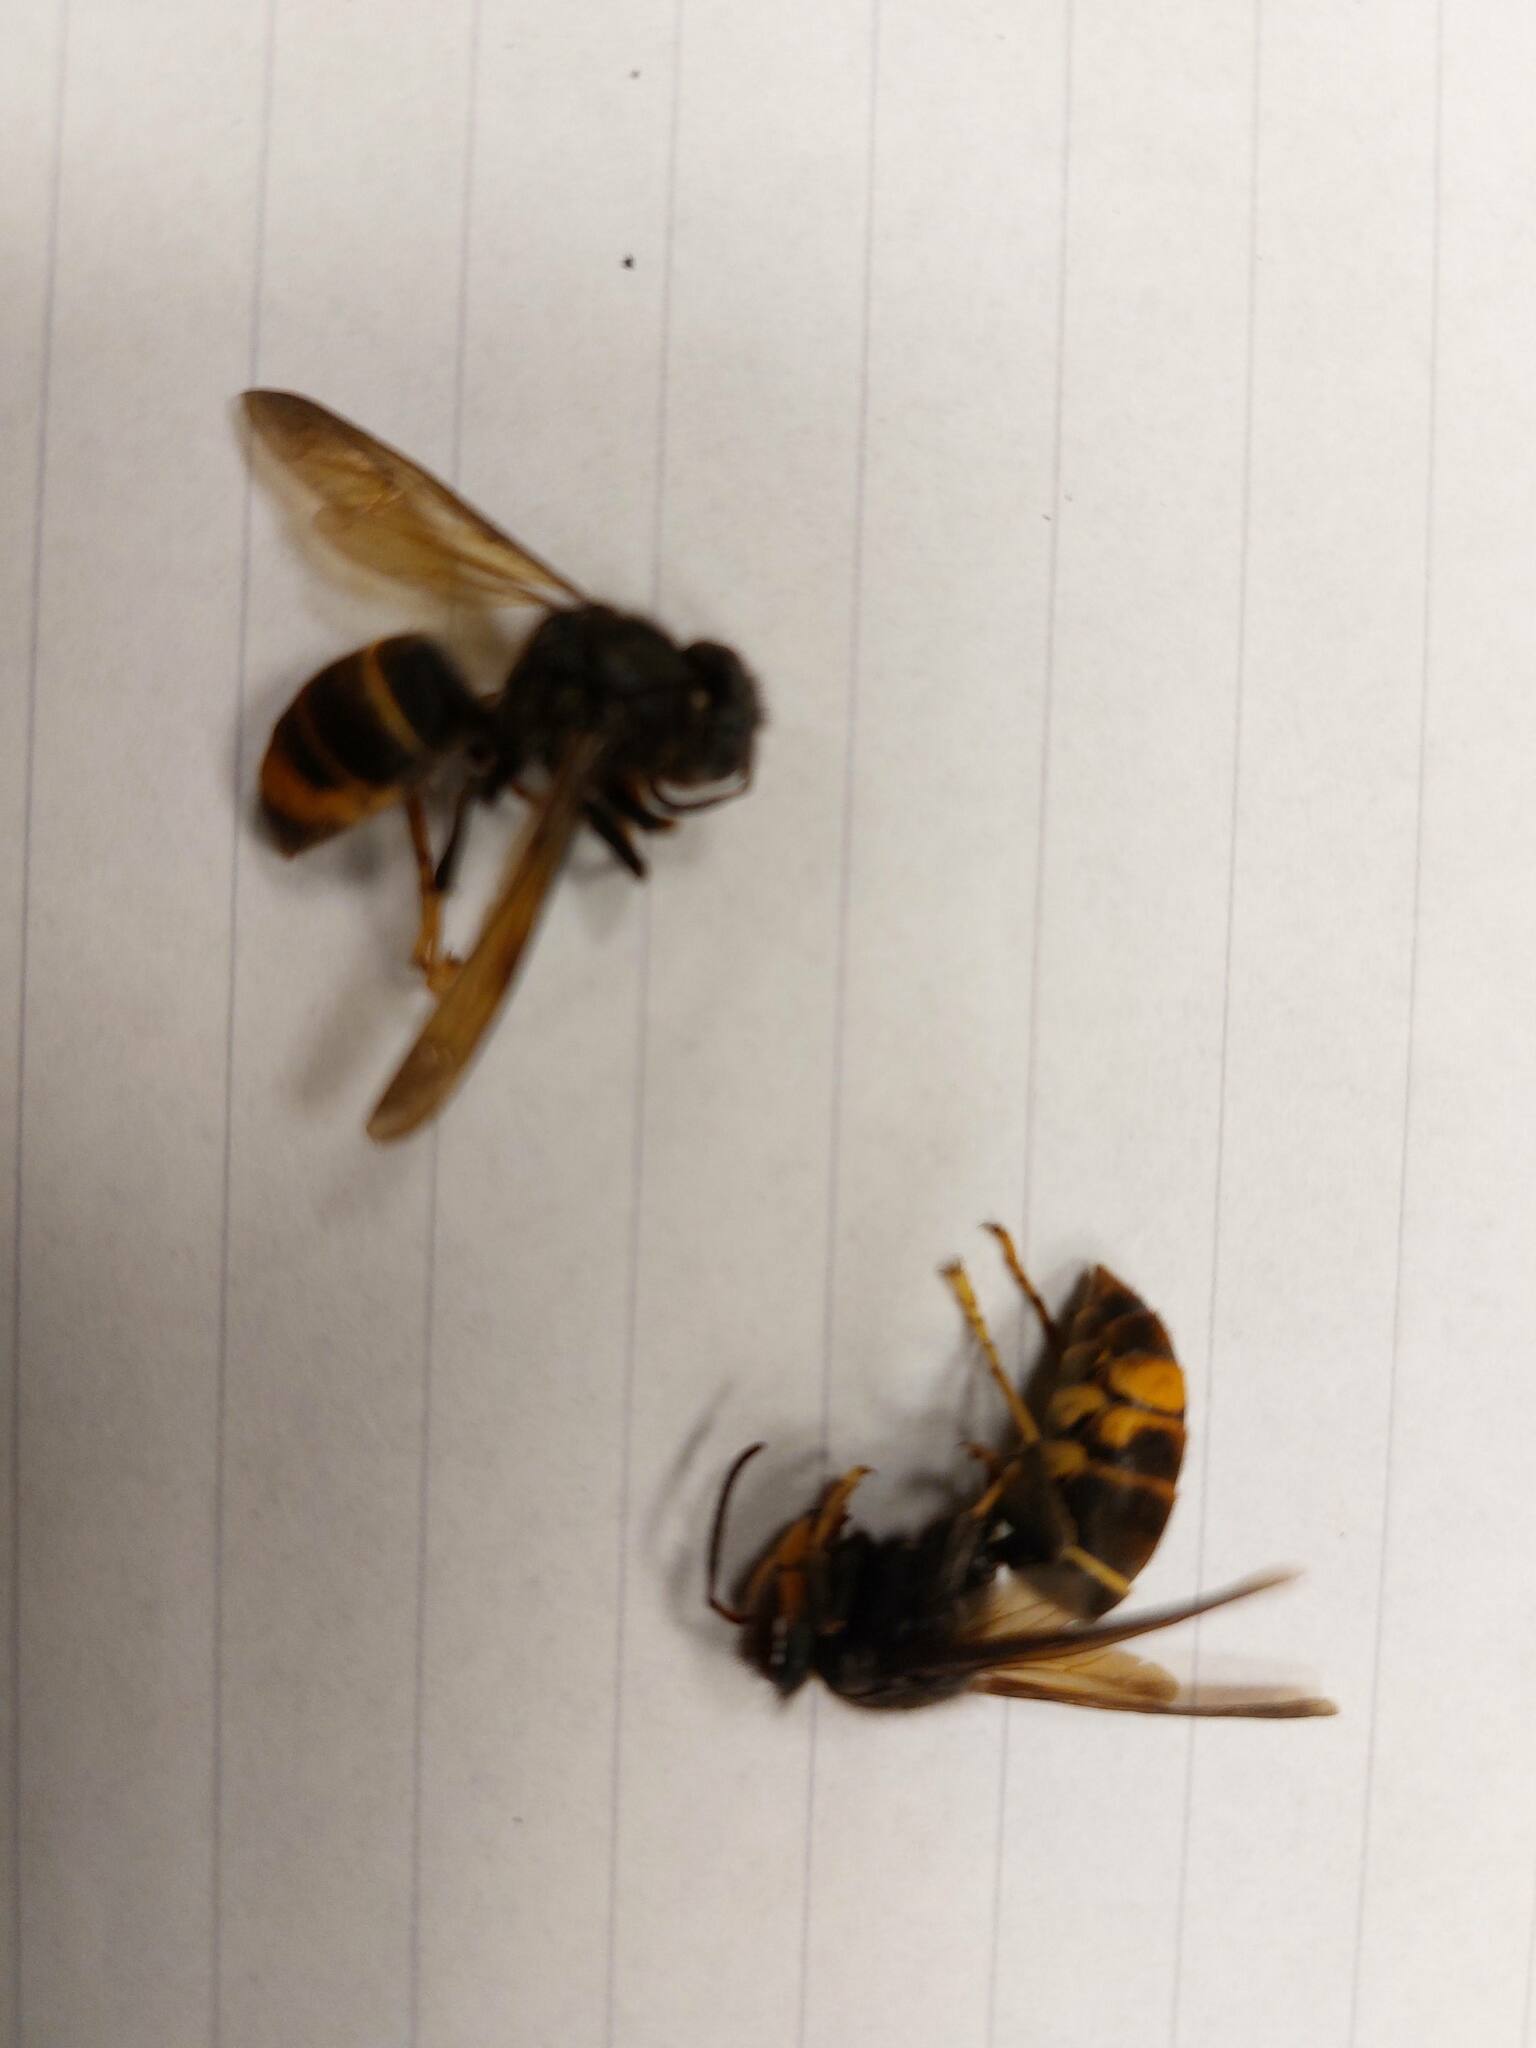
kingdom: Animalia
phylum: Arthropoda
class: Insecta
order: Hymenoptera
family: Vespidae
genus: Vespa
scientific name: Vespa velutina
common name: Asian hornet
